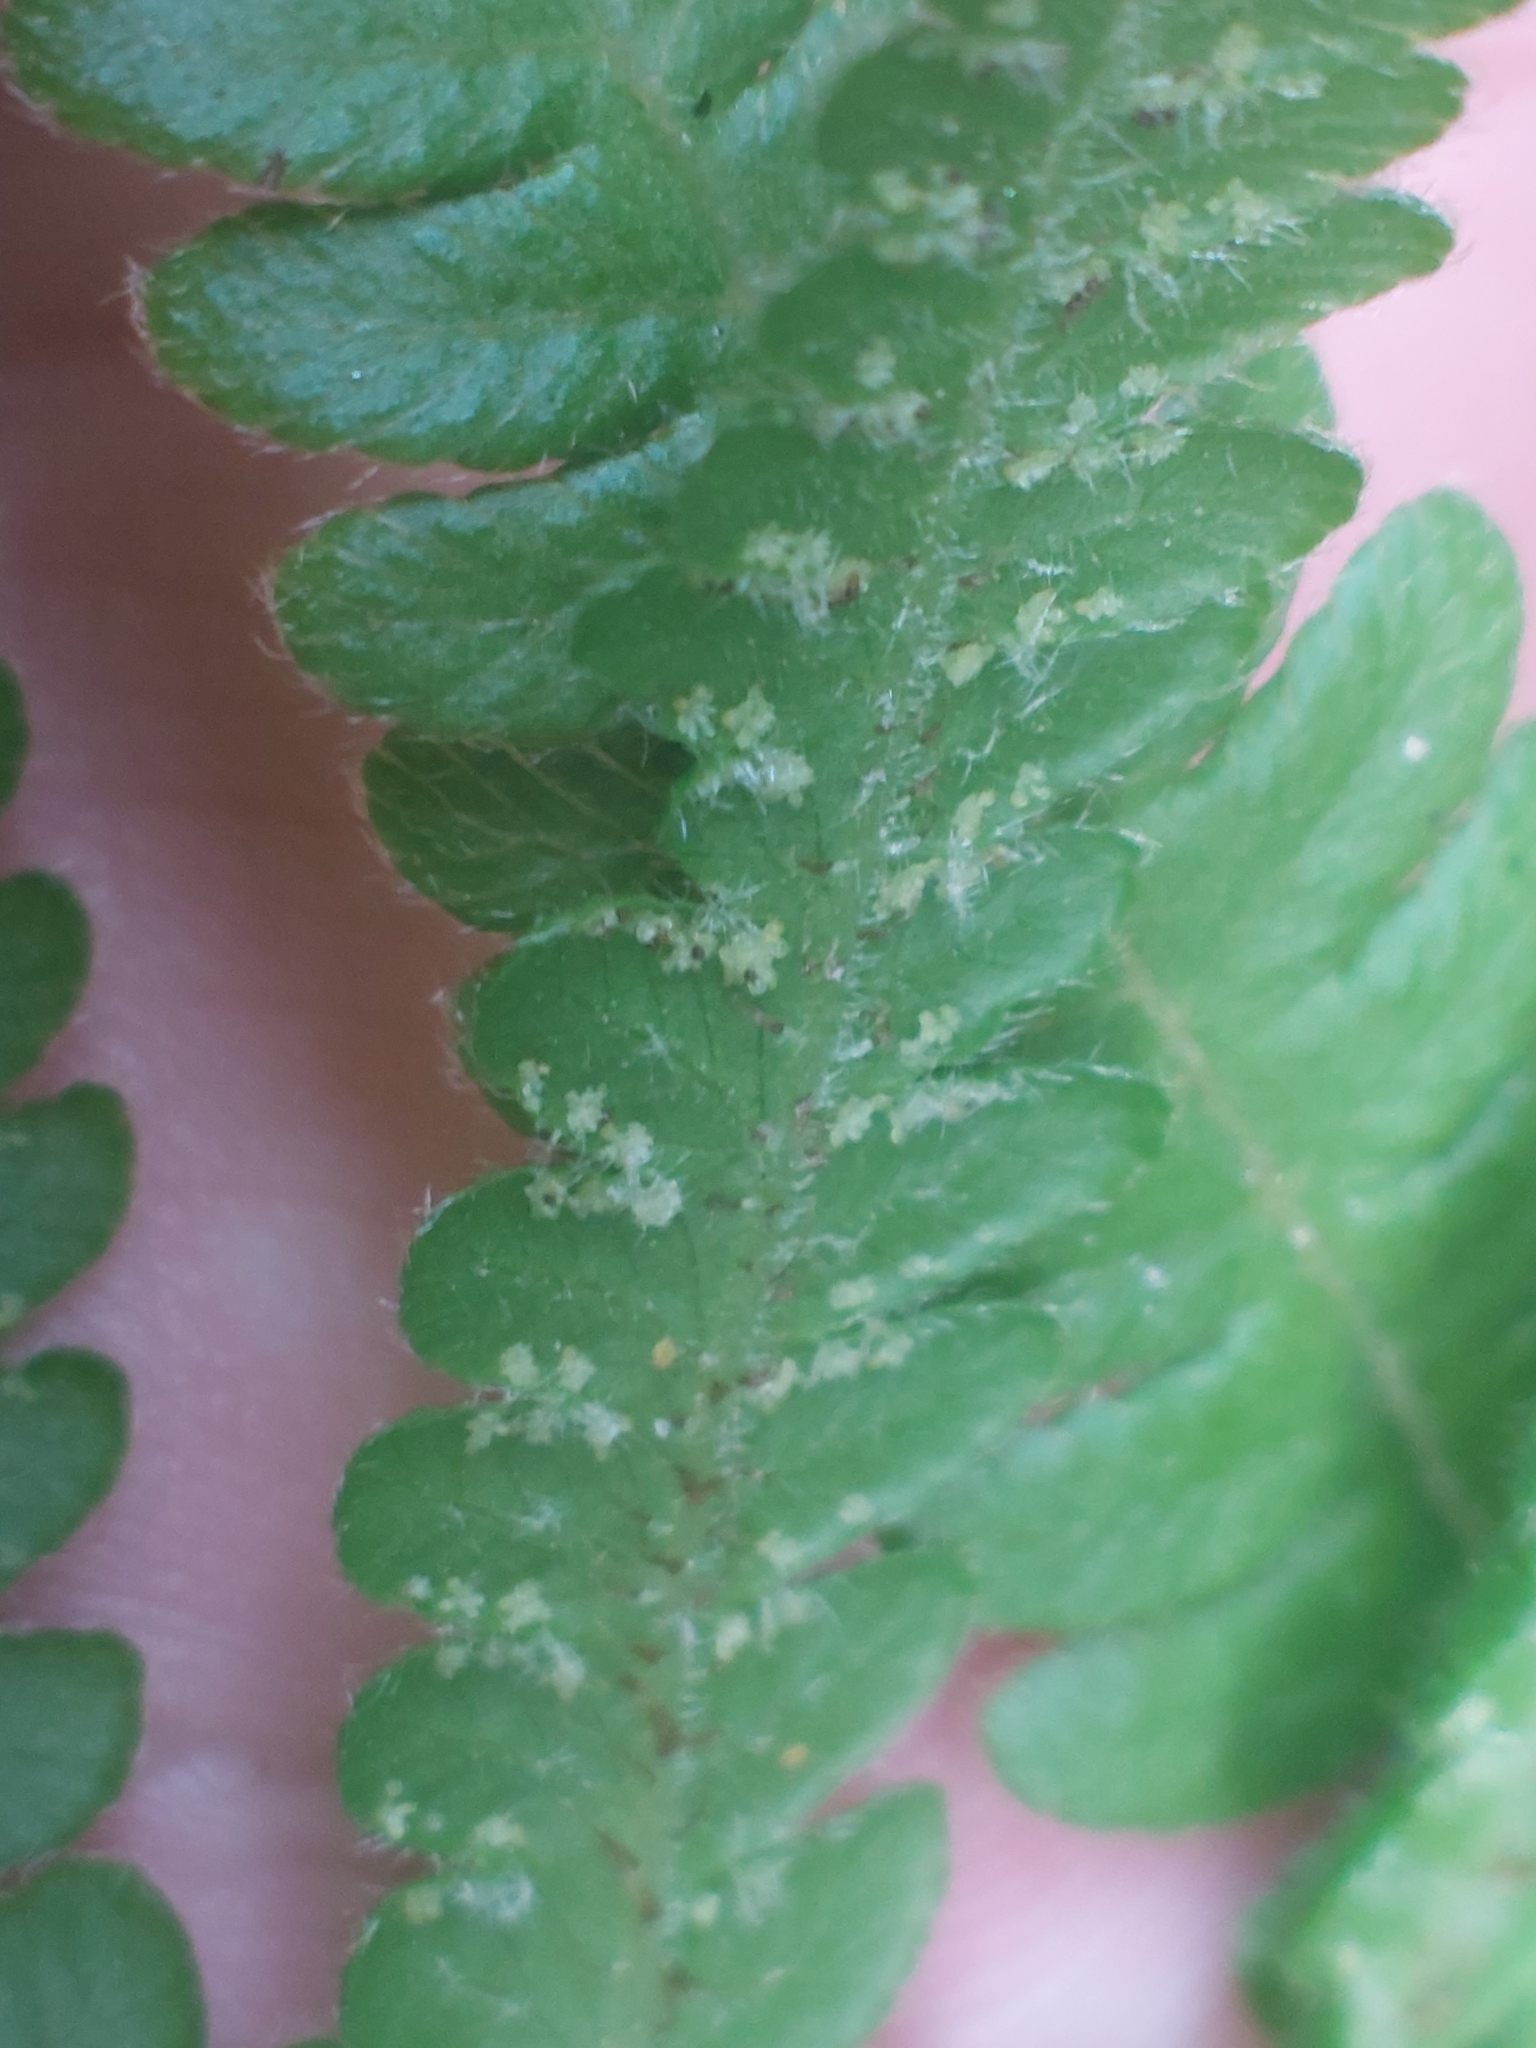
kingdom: Plantae
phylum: Tracheophyta
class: Polypodiopsida
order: Polypodiales
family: Thelypteridaceae
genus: Phegopteris
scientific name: Phegopteris connectilis
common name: Beech fern
